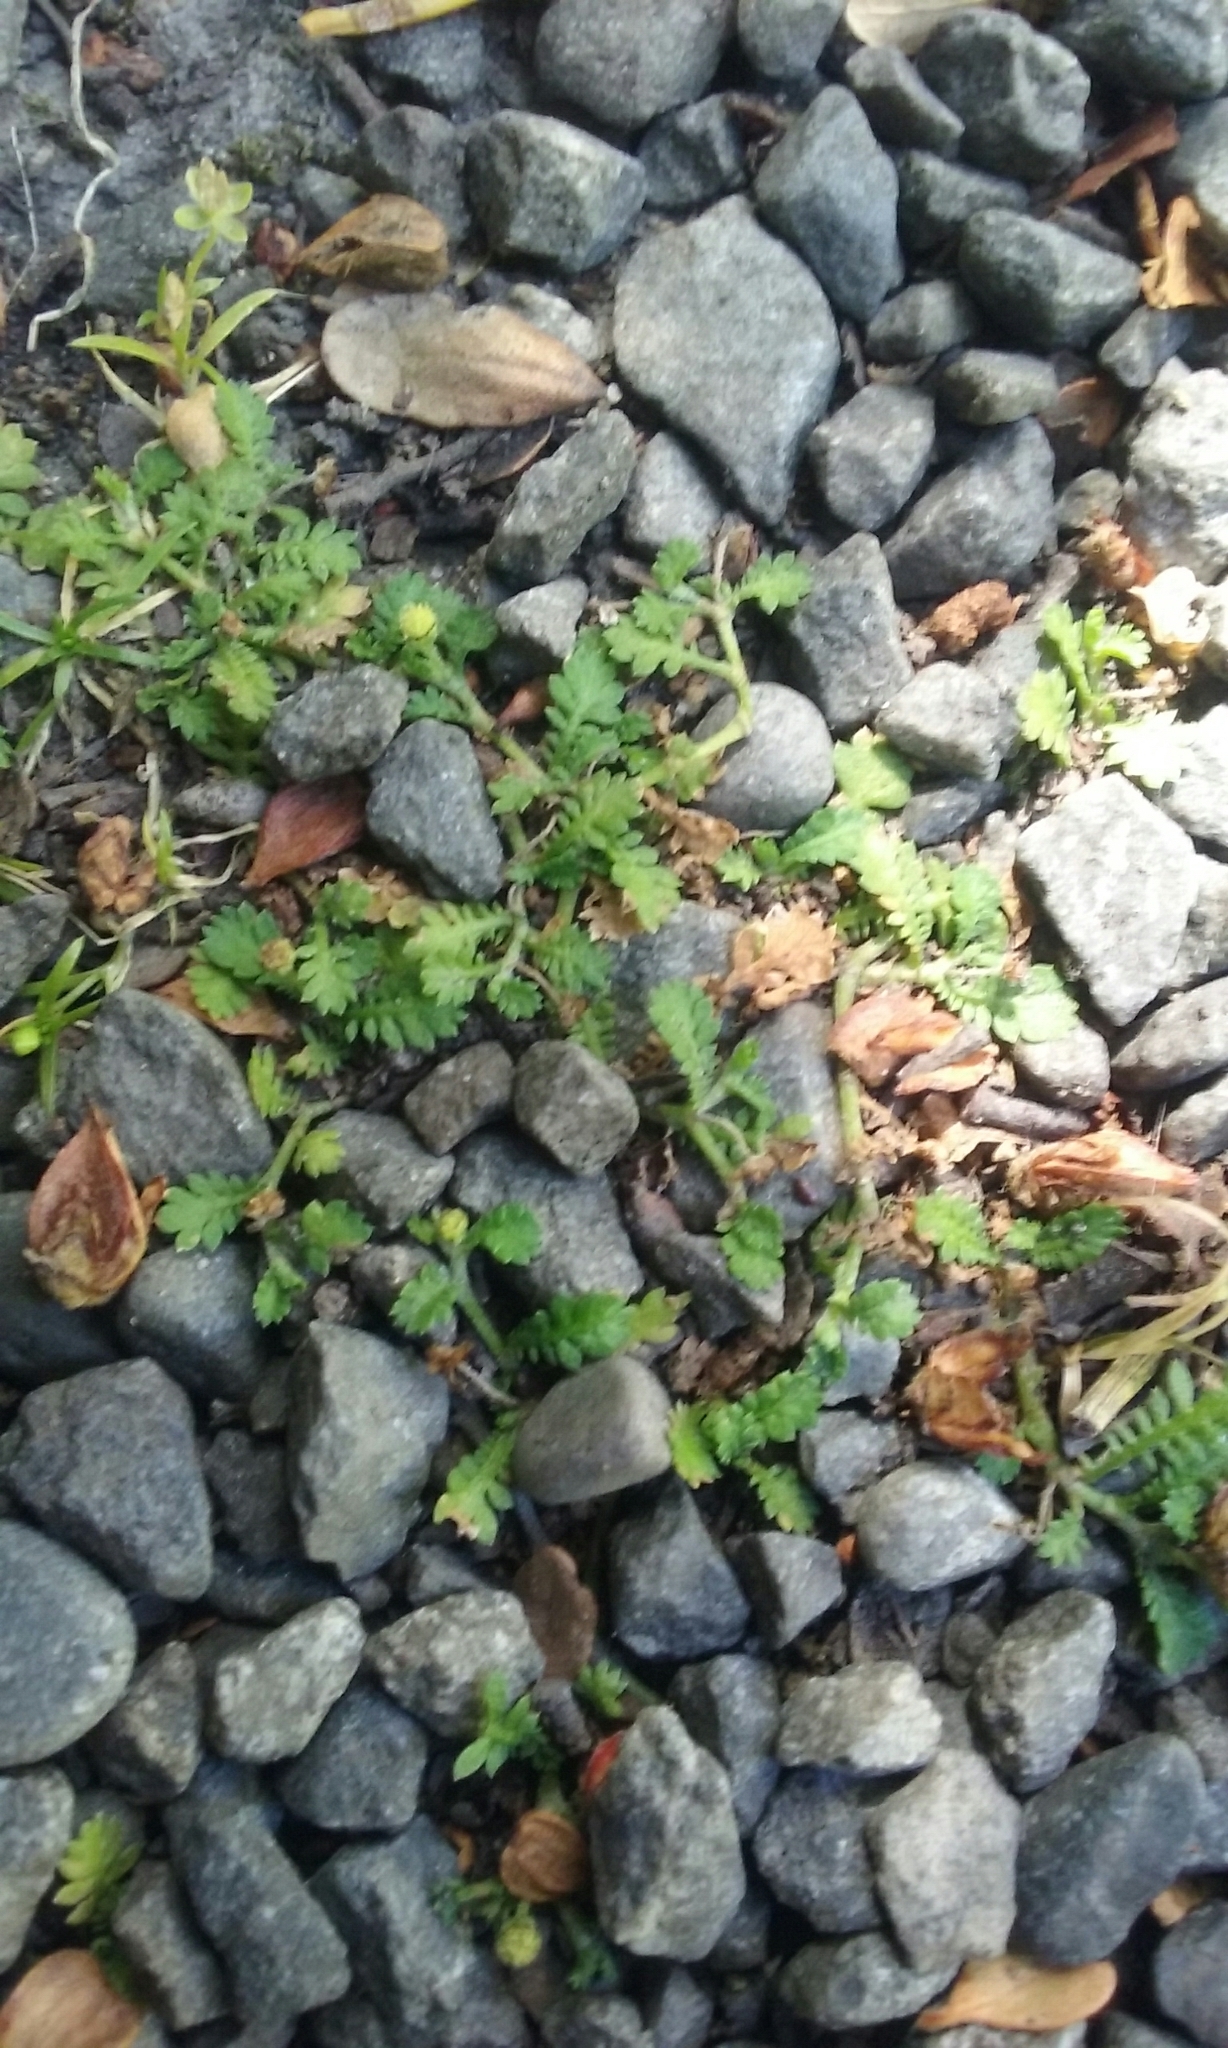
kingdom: Plantae
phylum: Tracheophyta
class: Magnoliopsida
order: Asterales
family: Asteraceae
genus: Leptinella
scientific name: Leptinella nana
